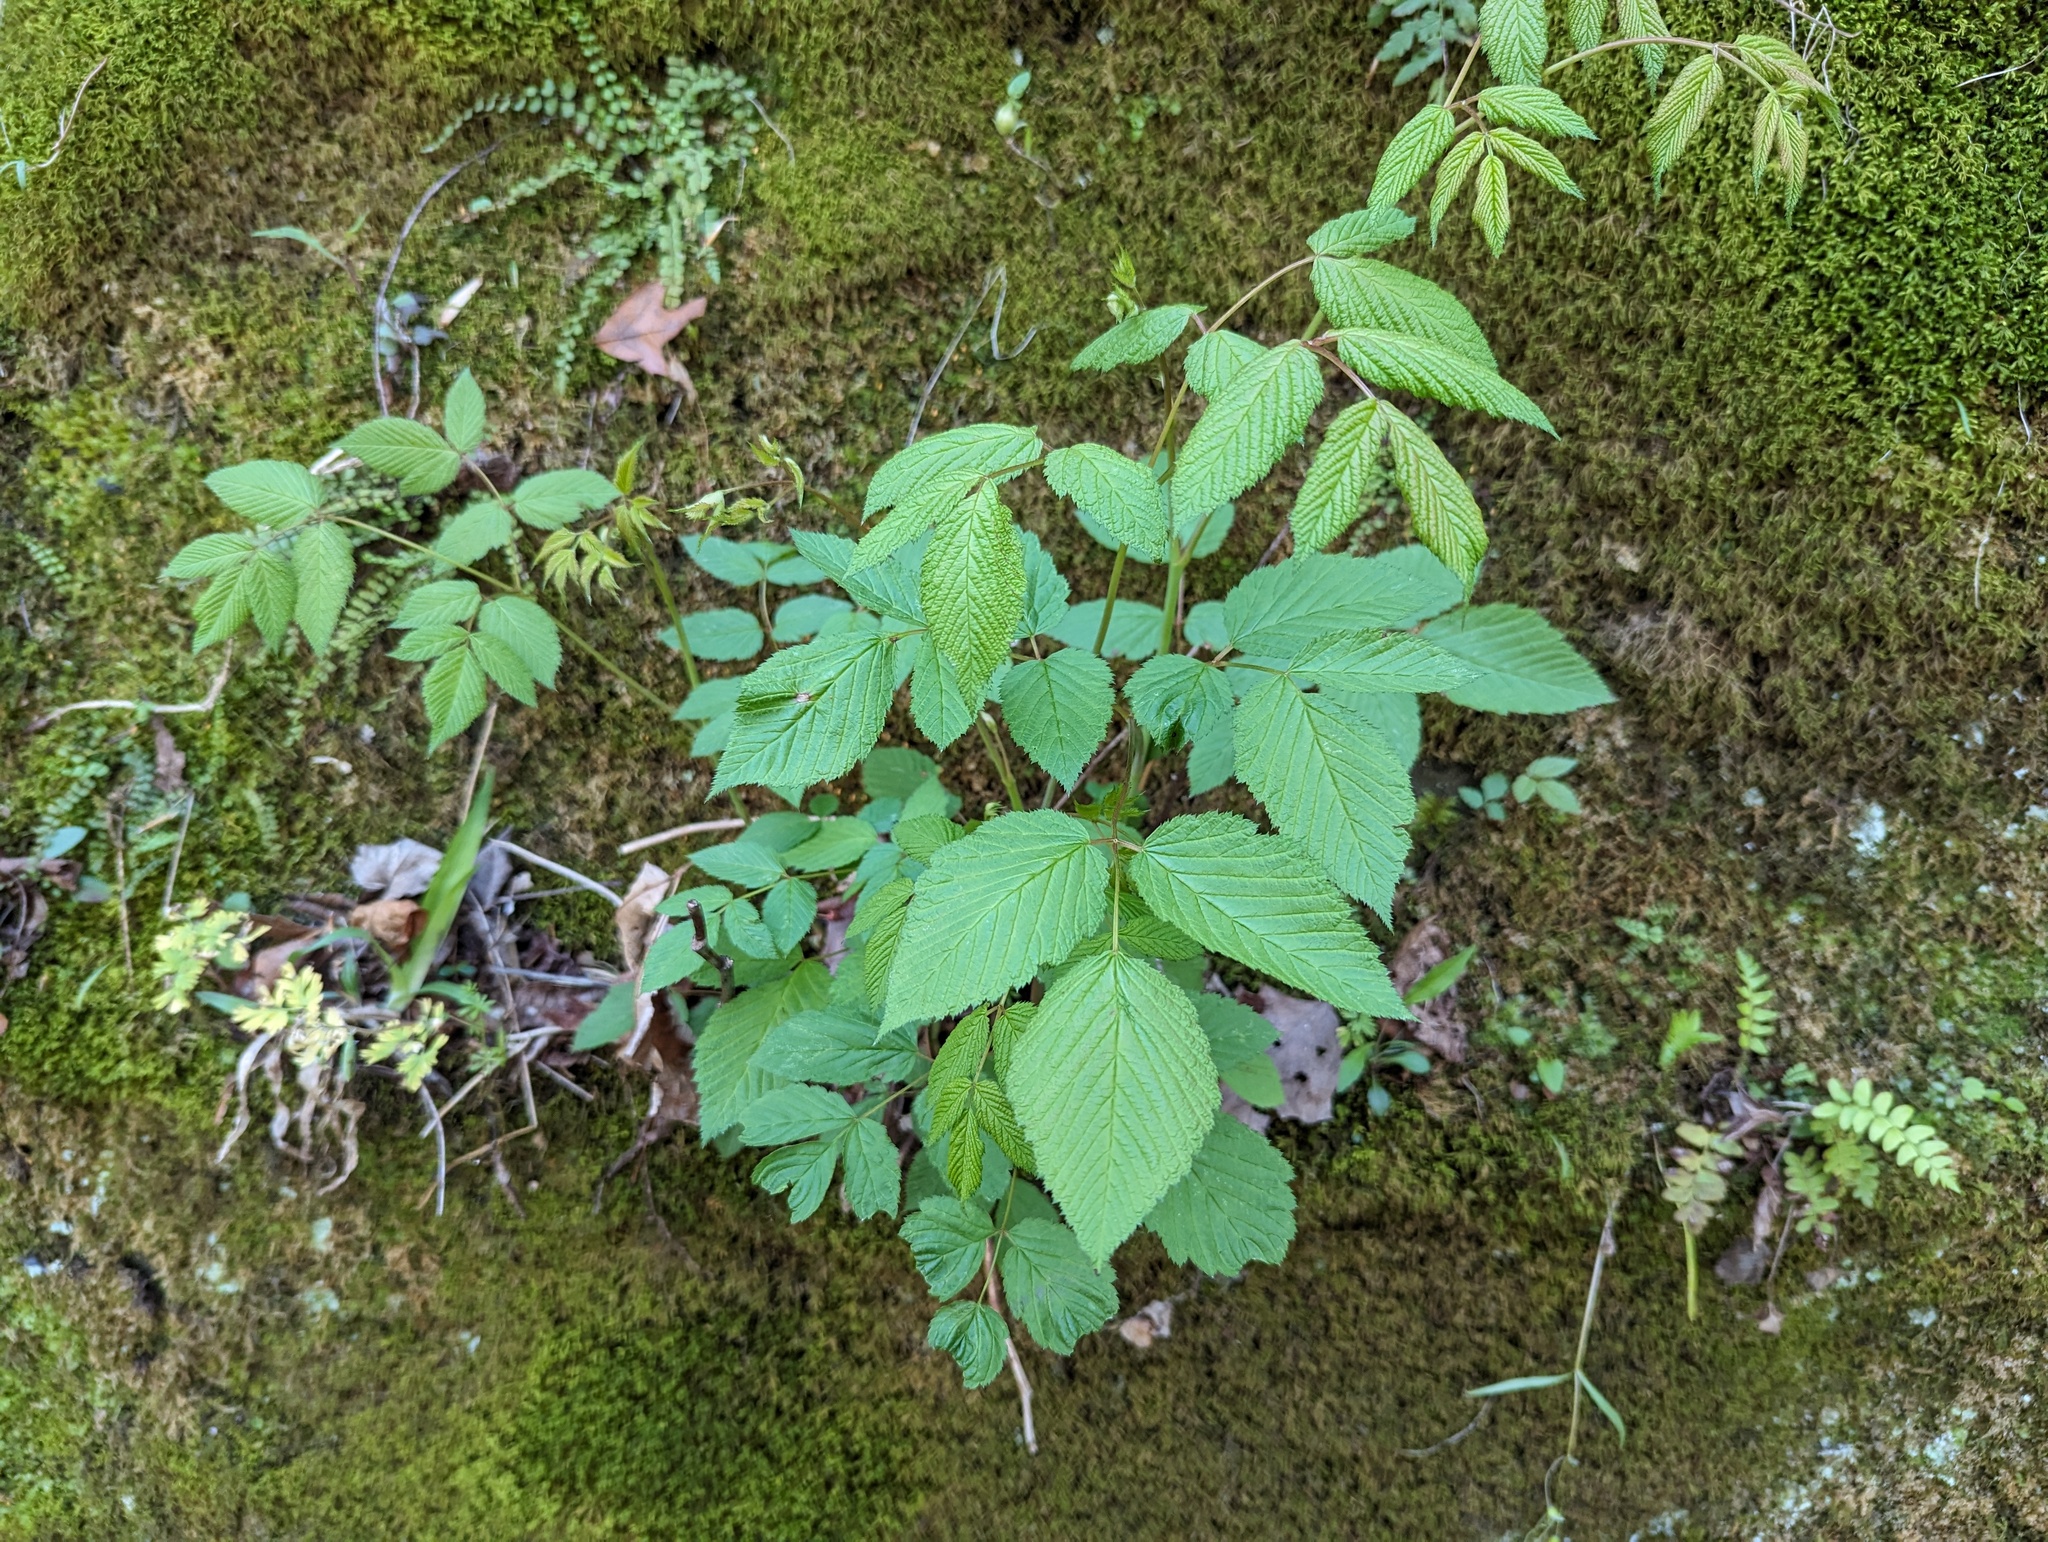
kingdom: Plantae
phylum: Tracheophyta
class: Magnoliopsida
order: Rosales
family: Rosaceae
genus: Aruncus
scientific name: Aruncus dioicus
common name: Buck's-beard
